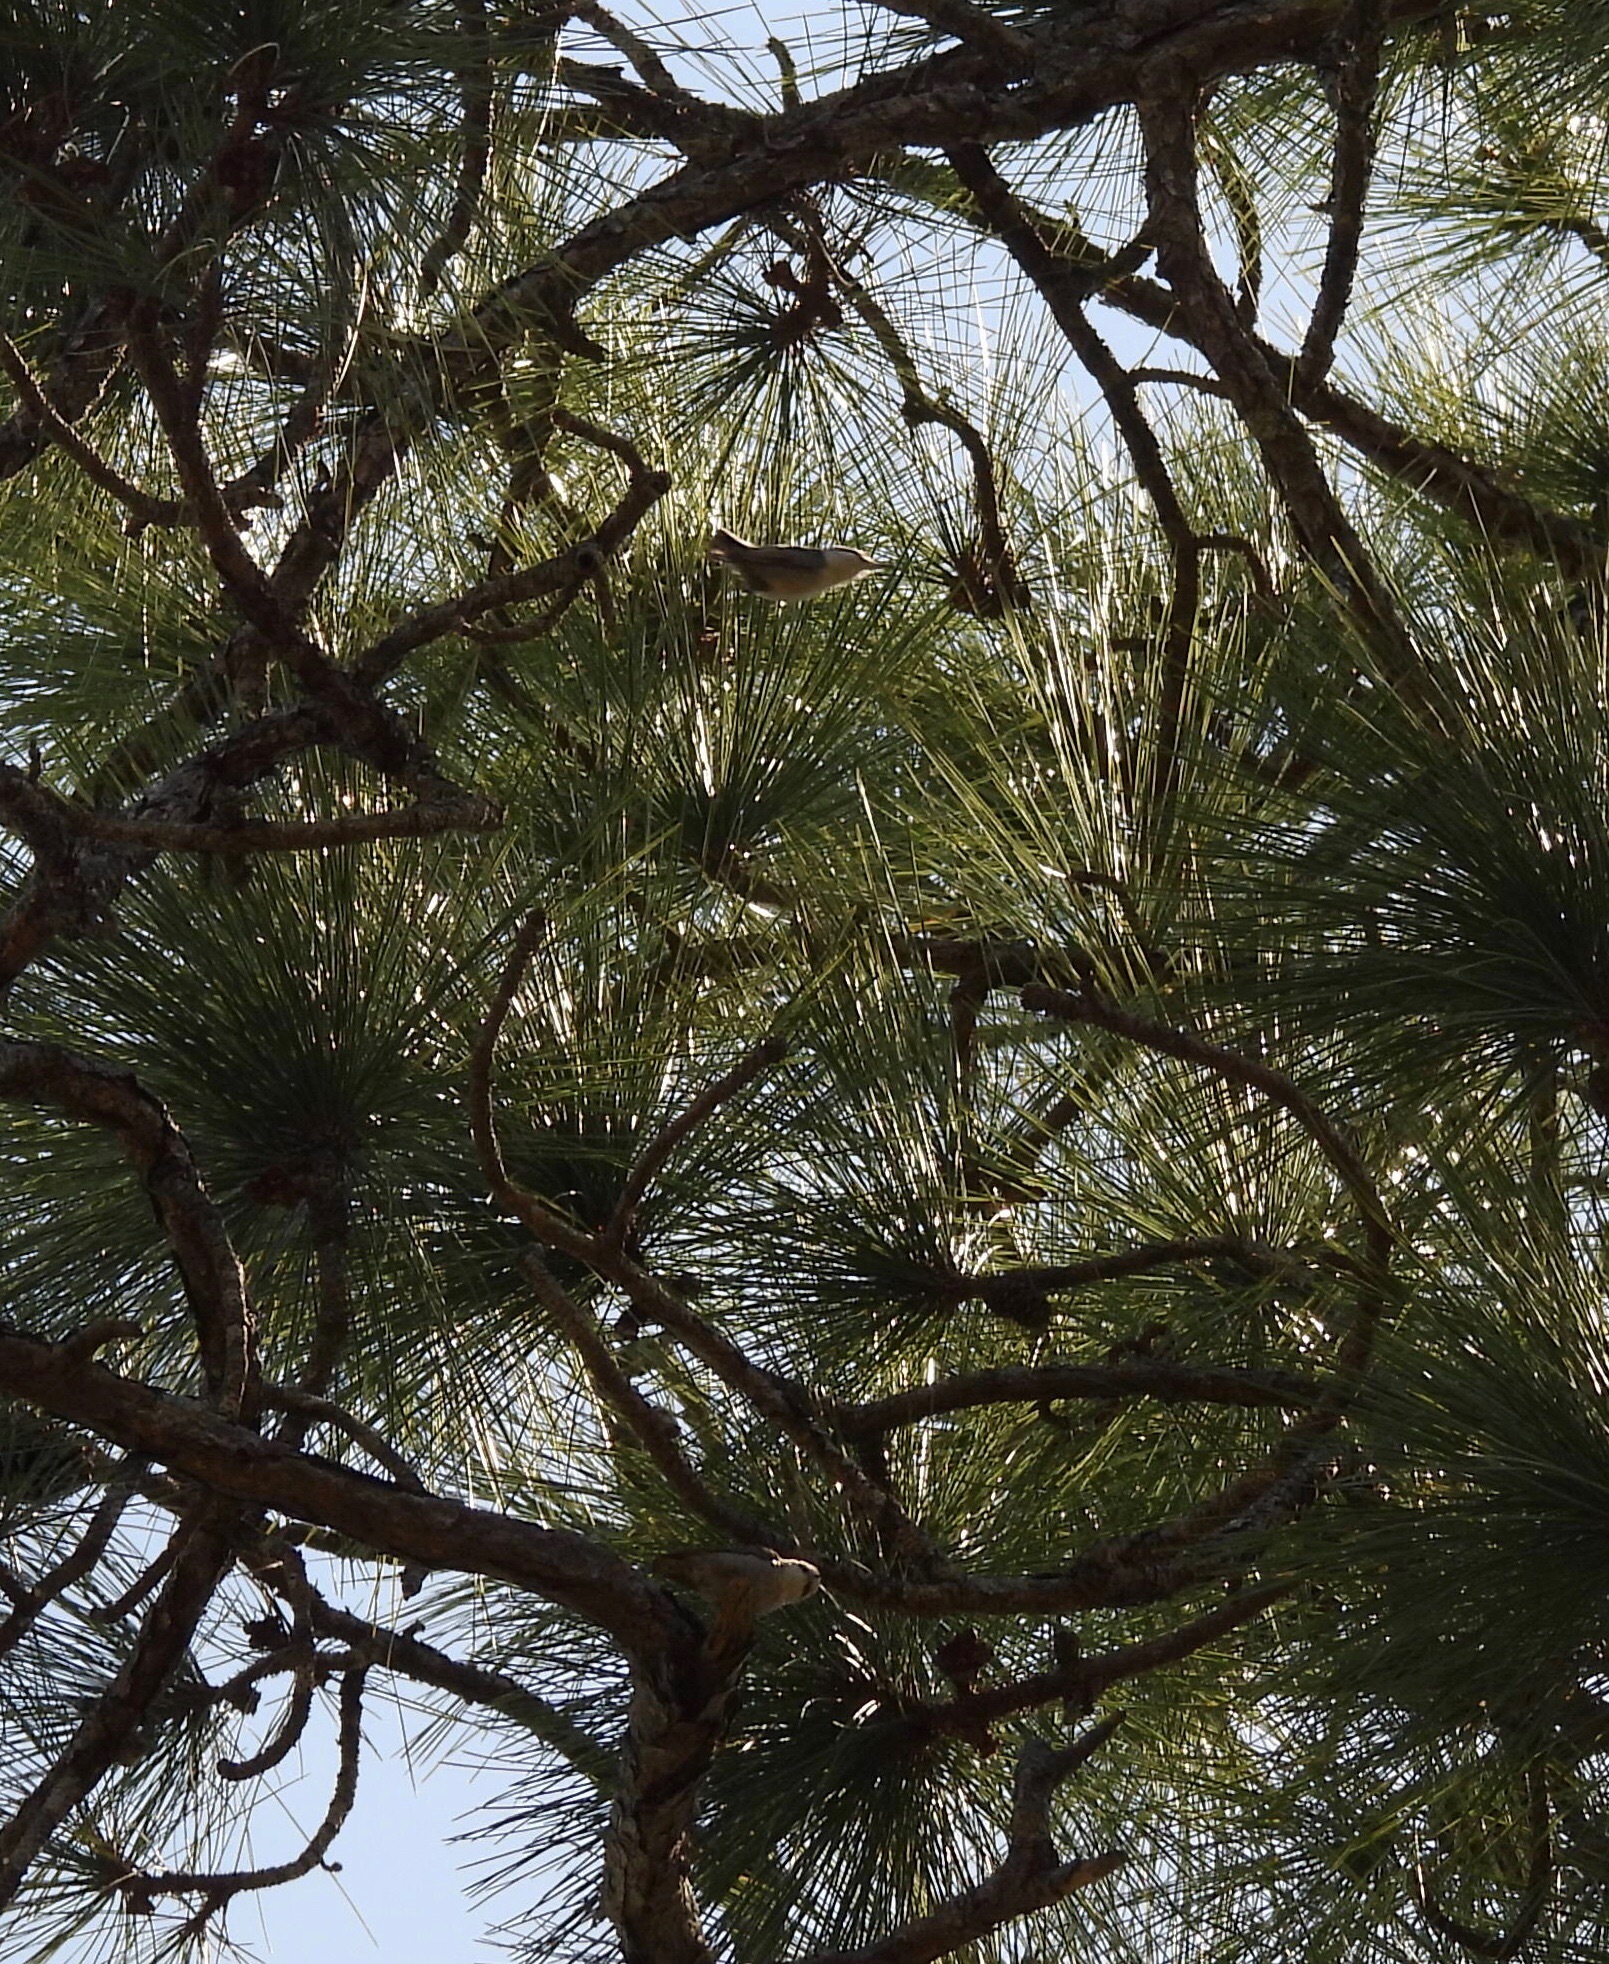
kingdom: Animalia
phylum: Chordata
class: Aves
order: Passeriformes
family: Sittidae
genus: Sitta
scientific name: Sitta pusilla
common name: Brown-headed nuthatch
